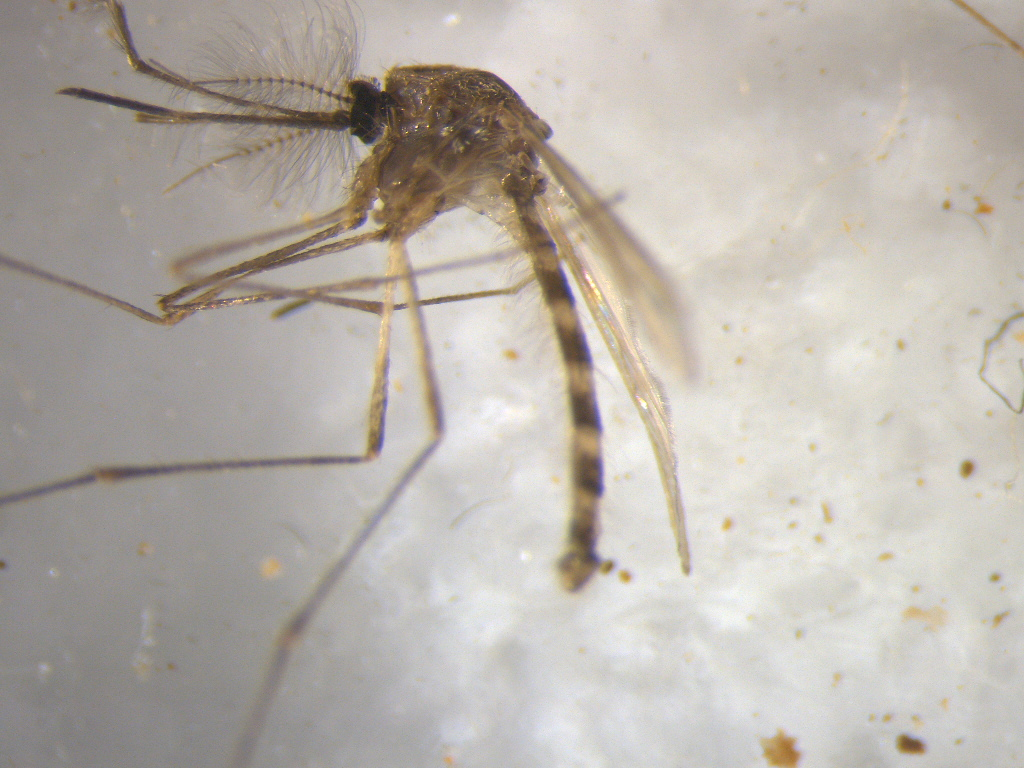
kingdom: Animalia
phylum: Arthropoda
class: Insecta
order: Diptera
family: Culicidae
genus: Culex
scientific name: Culex pervigilans
